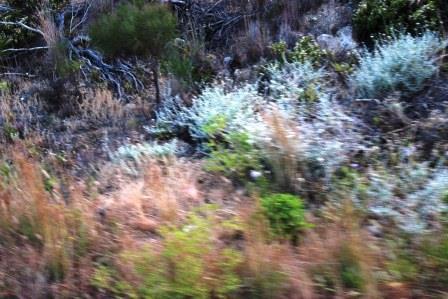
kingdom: Plantae
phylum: Tracheophyta
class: Magnoliopsida
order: Dipsacales
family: Caprifoliaceae
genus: Centranthus
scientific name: Centranthus ruber
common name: Red valerian
